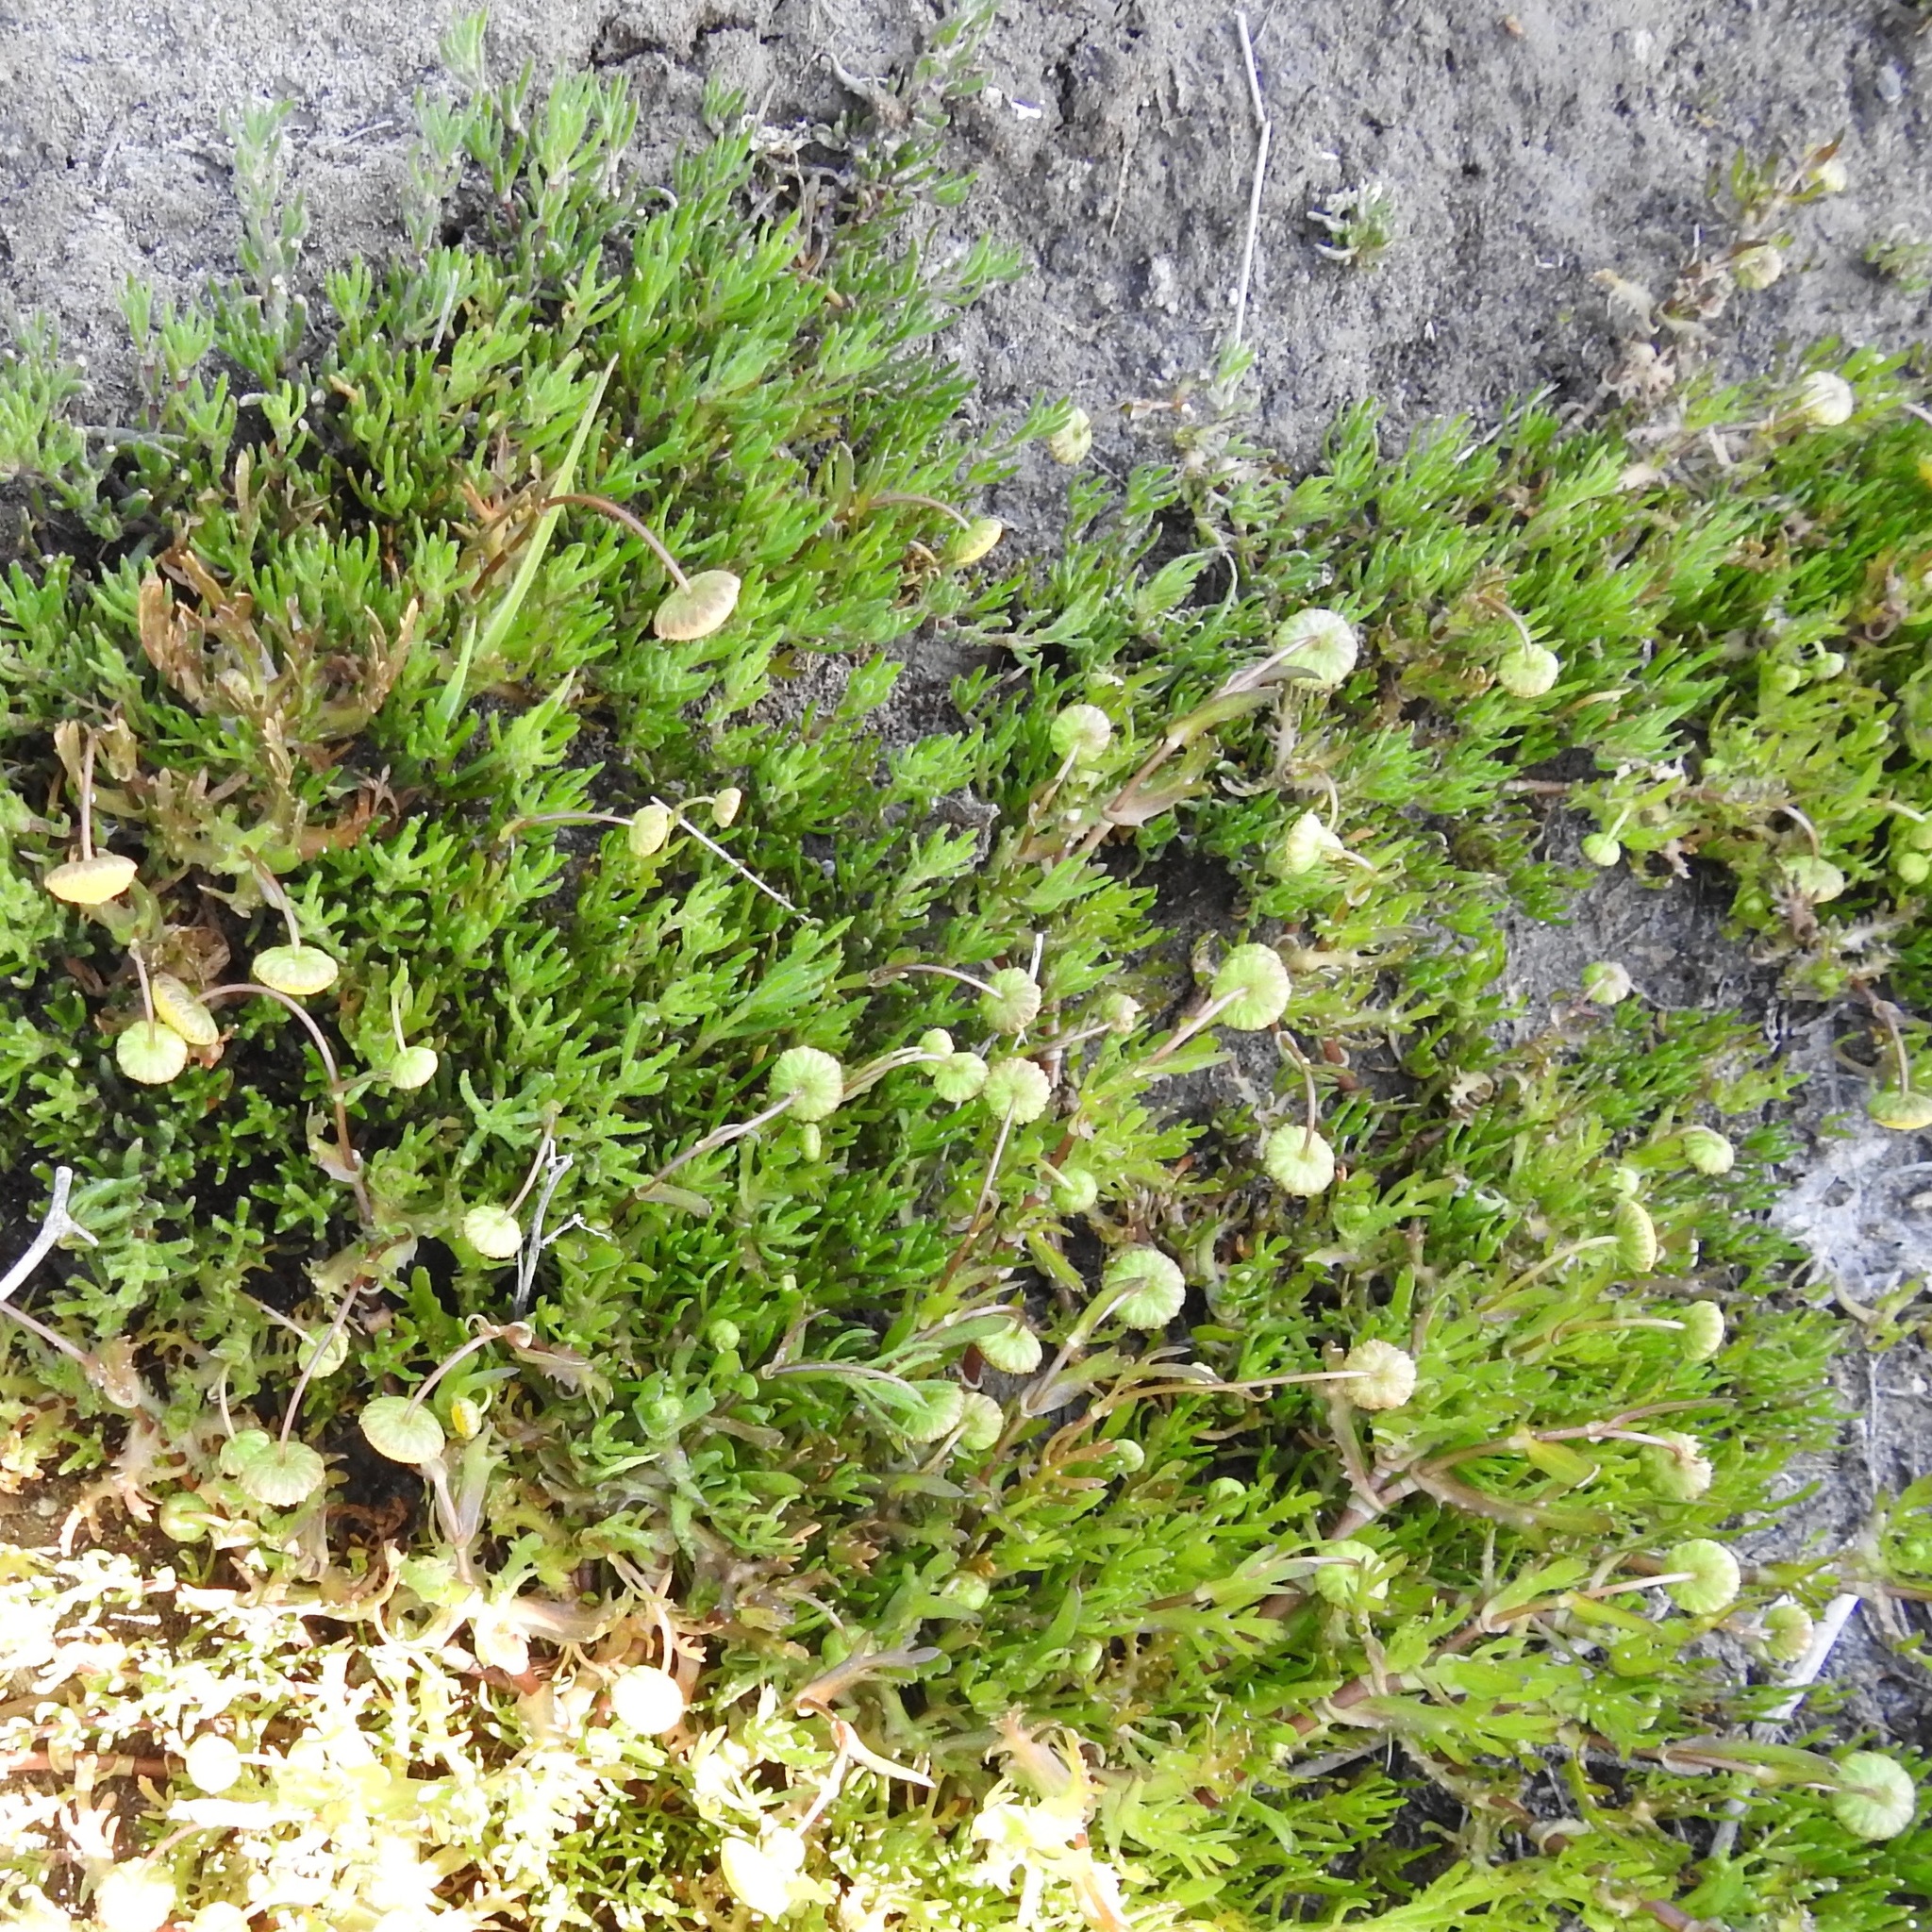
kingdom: Plantae
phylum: Tracheophyta
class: Magnoliopsida
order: Asterales
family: Asteraceae
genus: Cotula
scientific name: Cotula coronopifolia
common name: Buttonweed
